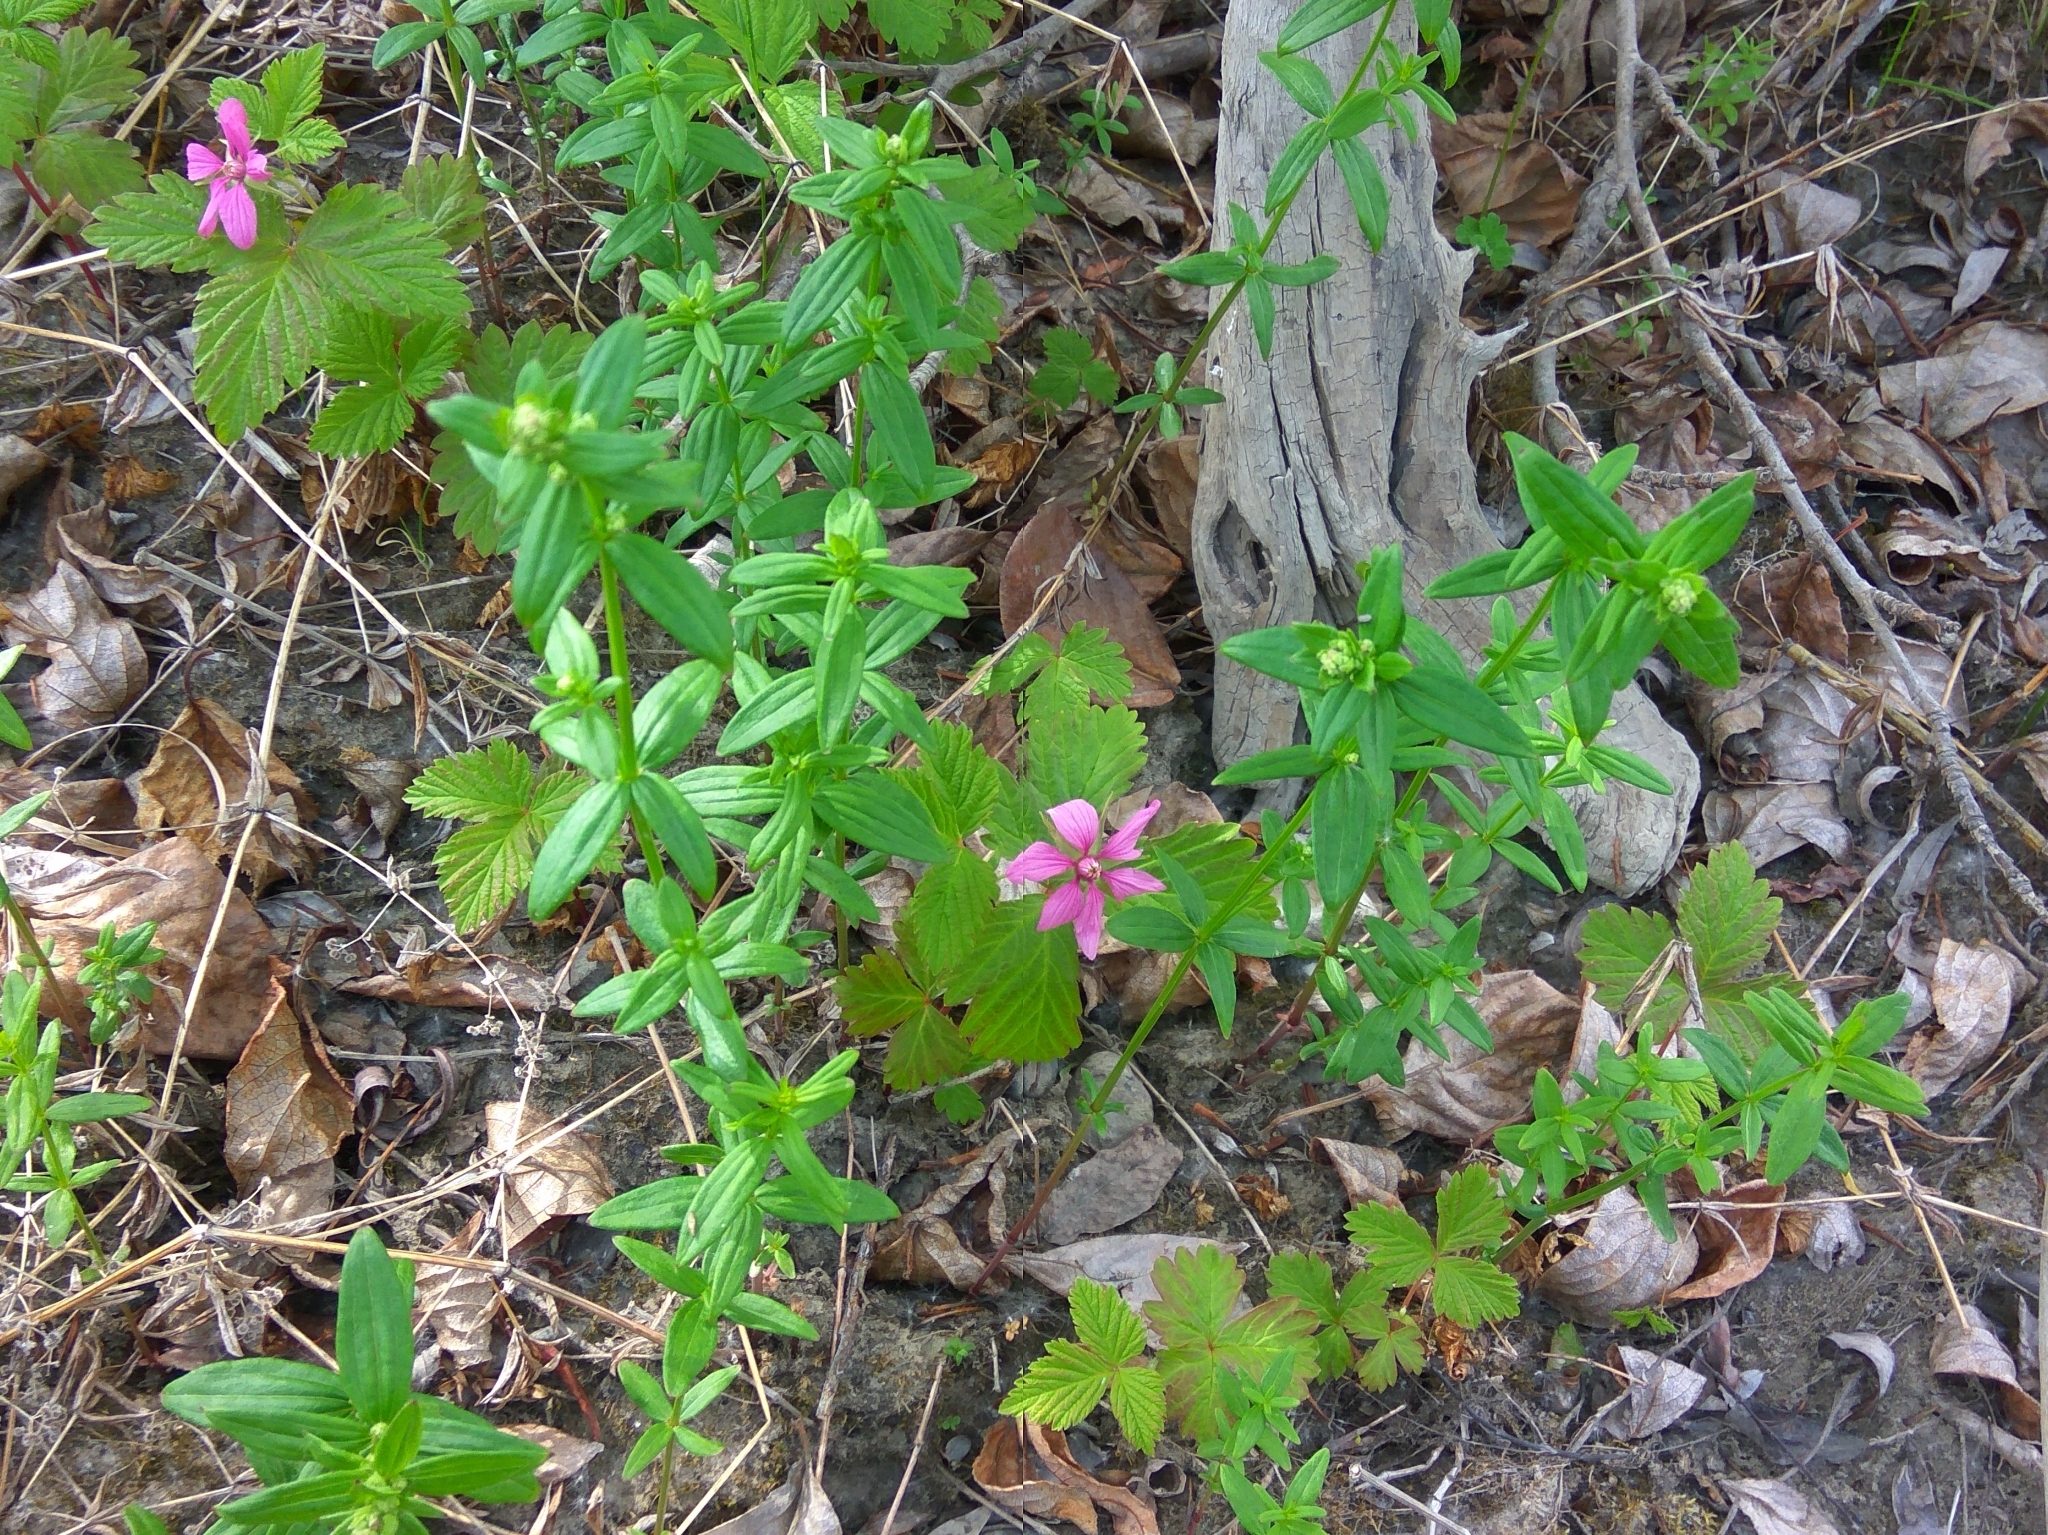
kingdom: Plantae
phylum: Tracheophyta
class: Magnoliopsida
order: Rosales
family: Rosaceae
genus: Rubus
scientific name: Rubus arcticus
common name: Arctic bramble
